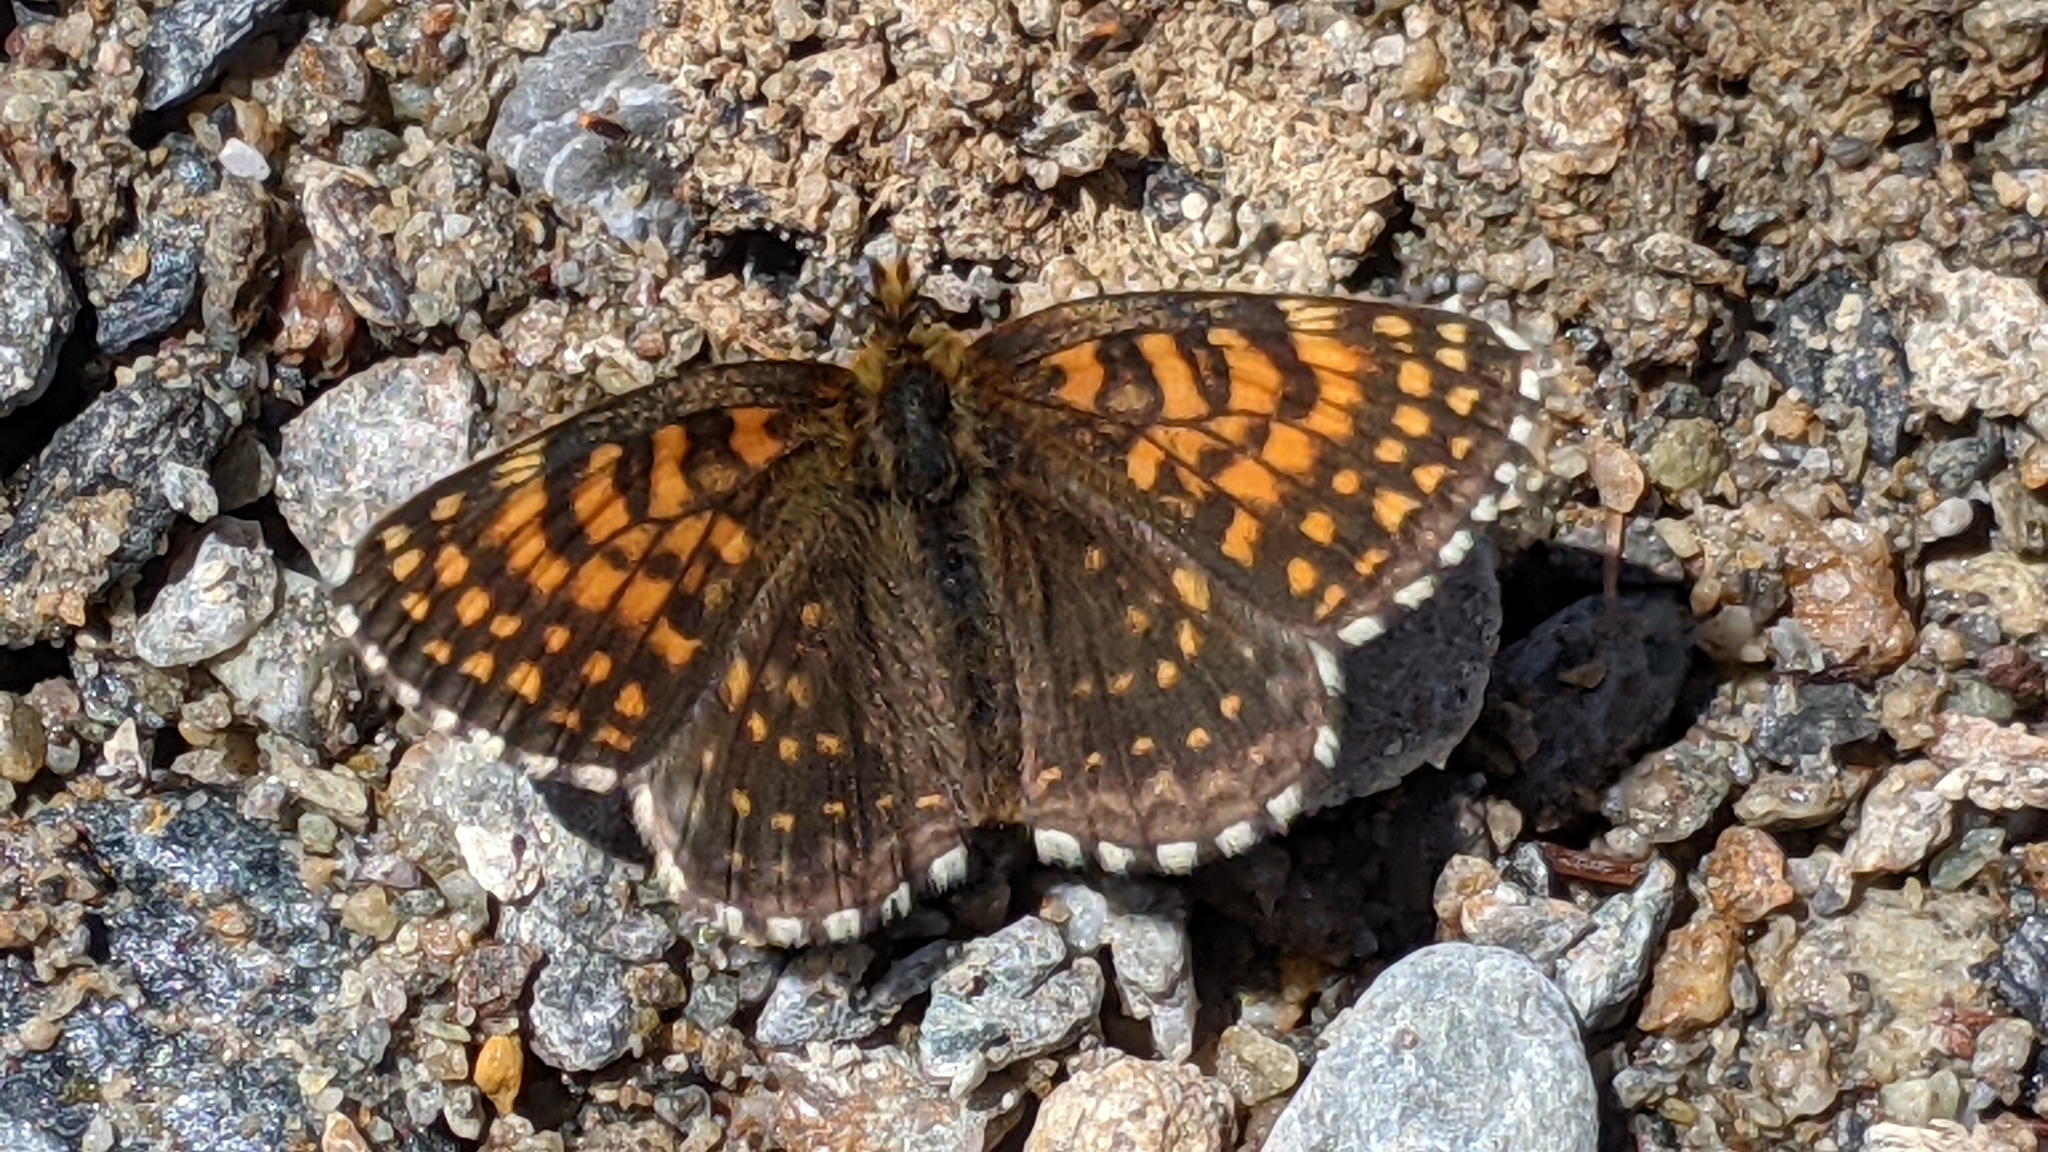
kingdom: Animalia
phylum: Arthropoda
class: Insecta
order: Lepidoptera
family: Nymphalidae
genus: Melitaea
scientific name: Melitaea diamina
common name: False heath fritillary
